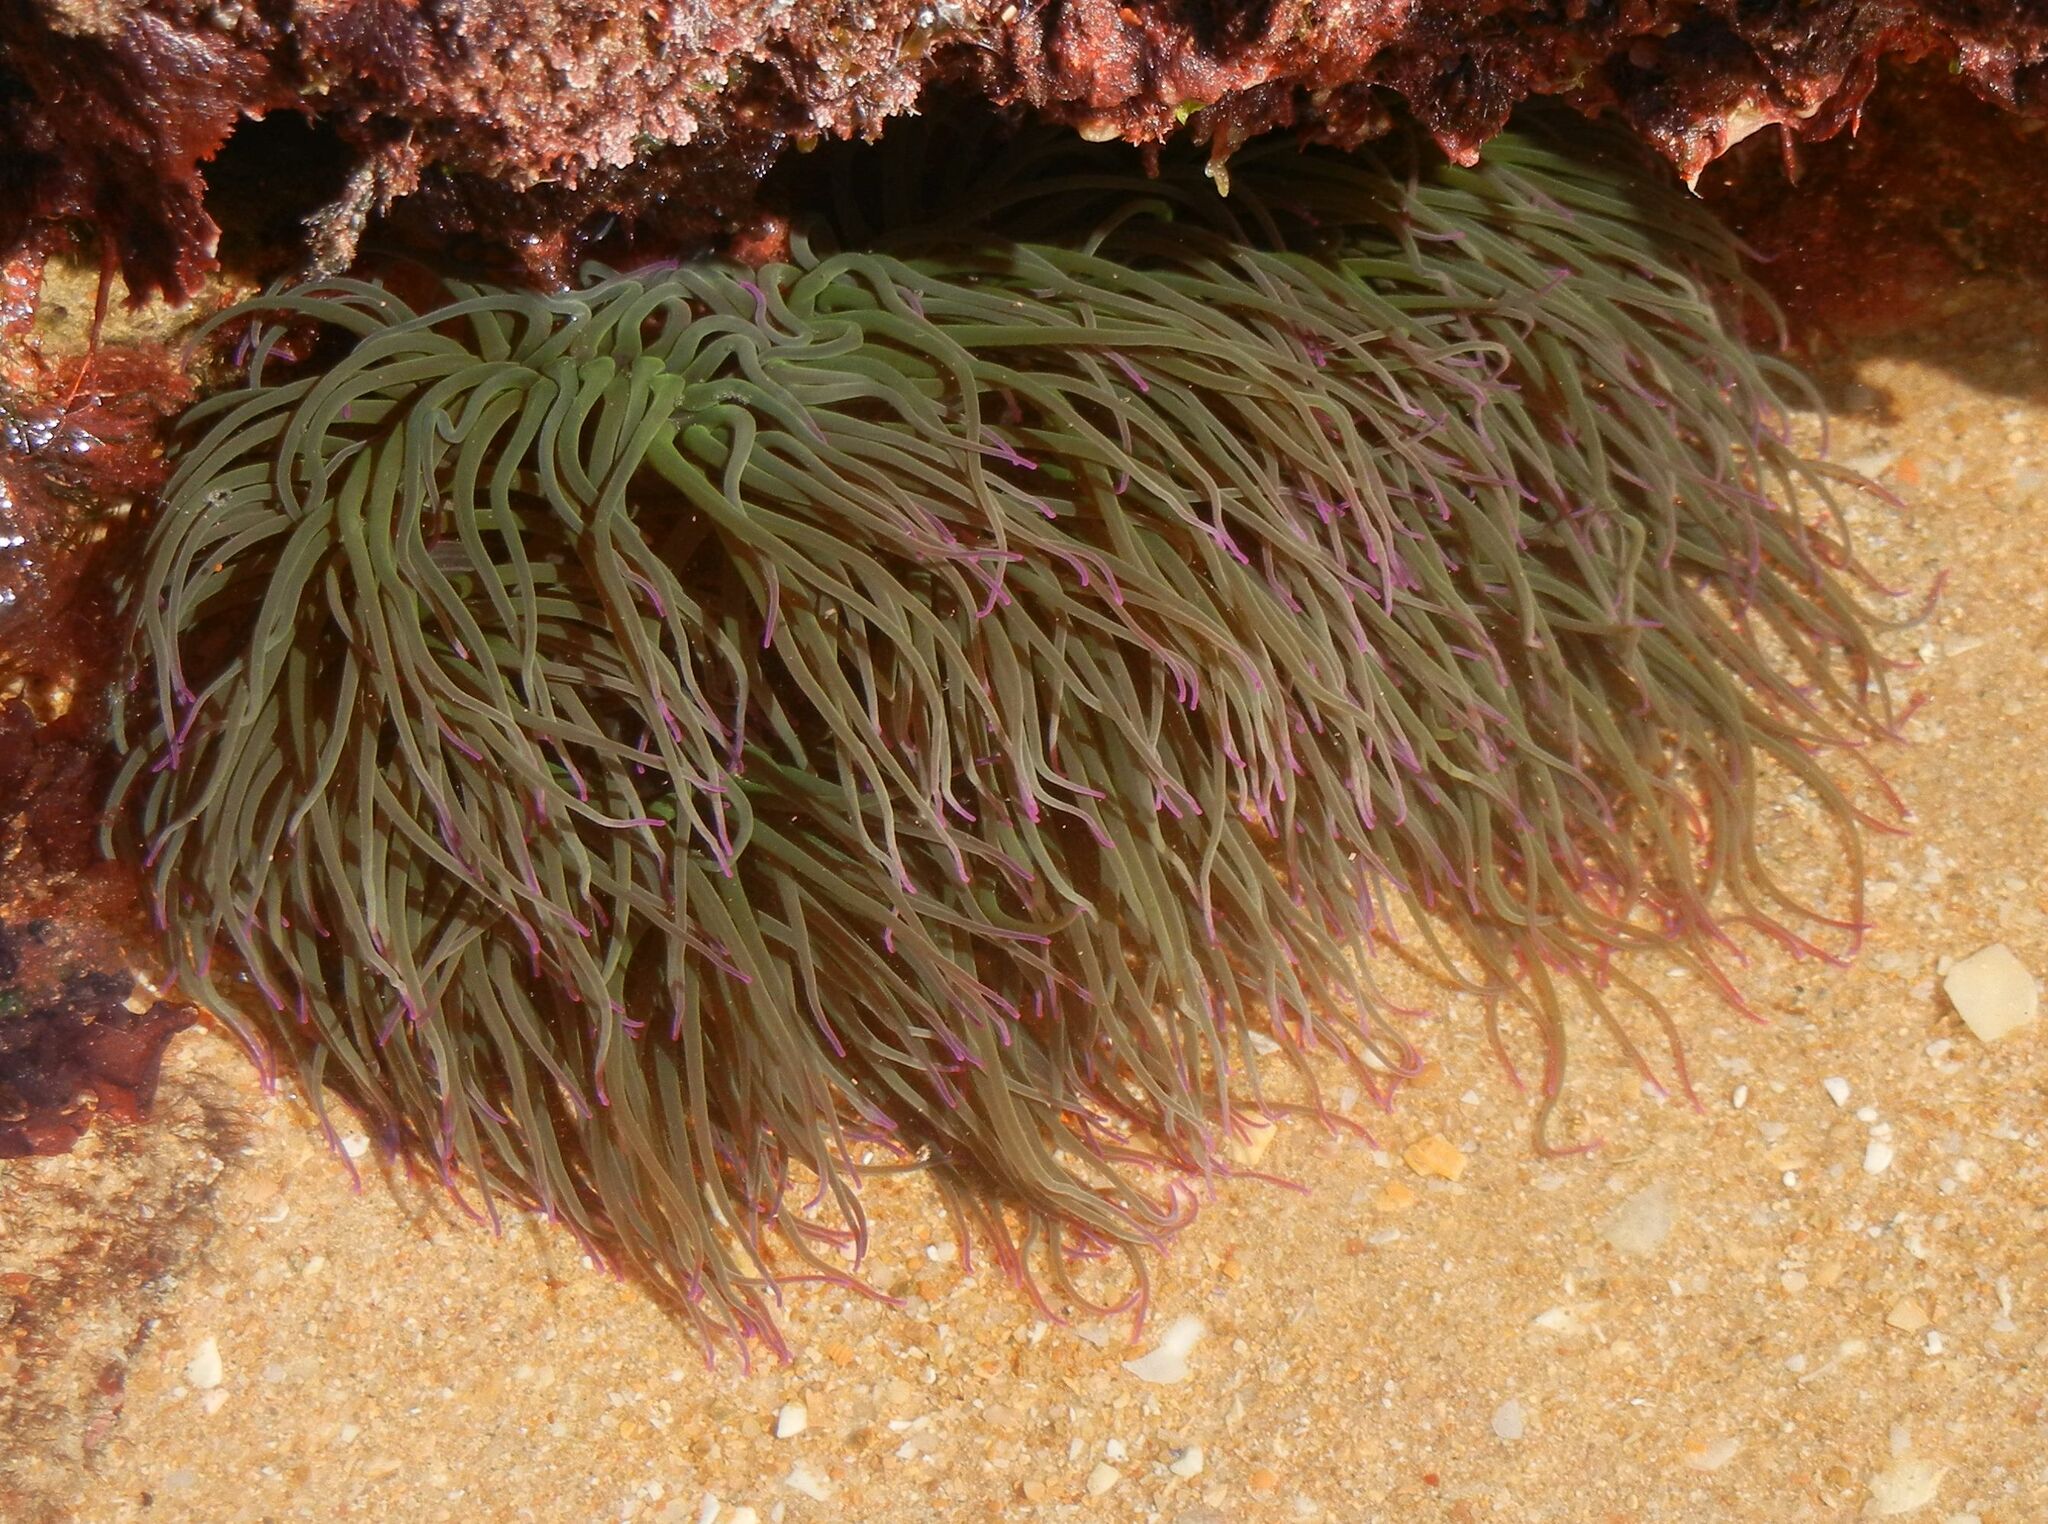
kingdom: Animalia
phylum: Cnidaria
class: Anthozoa
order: Actiniaria
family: Actiniidae
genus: Anemonia
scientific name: Anemonia viridis
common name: Snakelocks anemone
